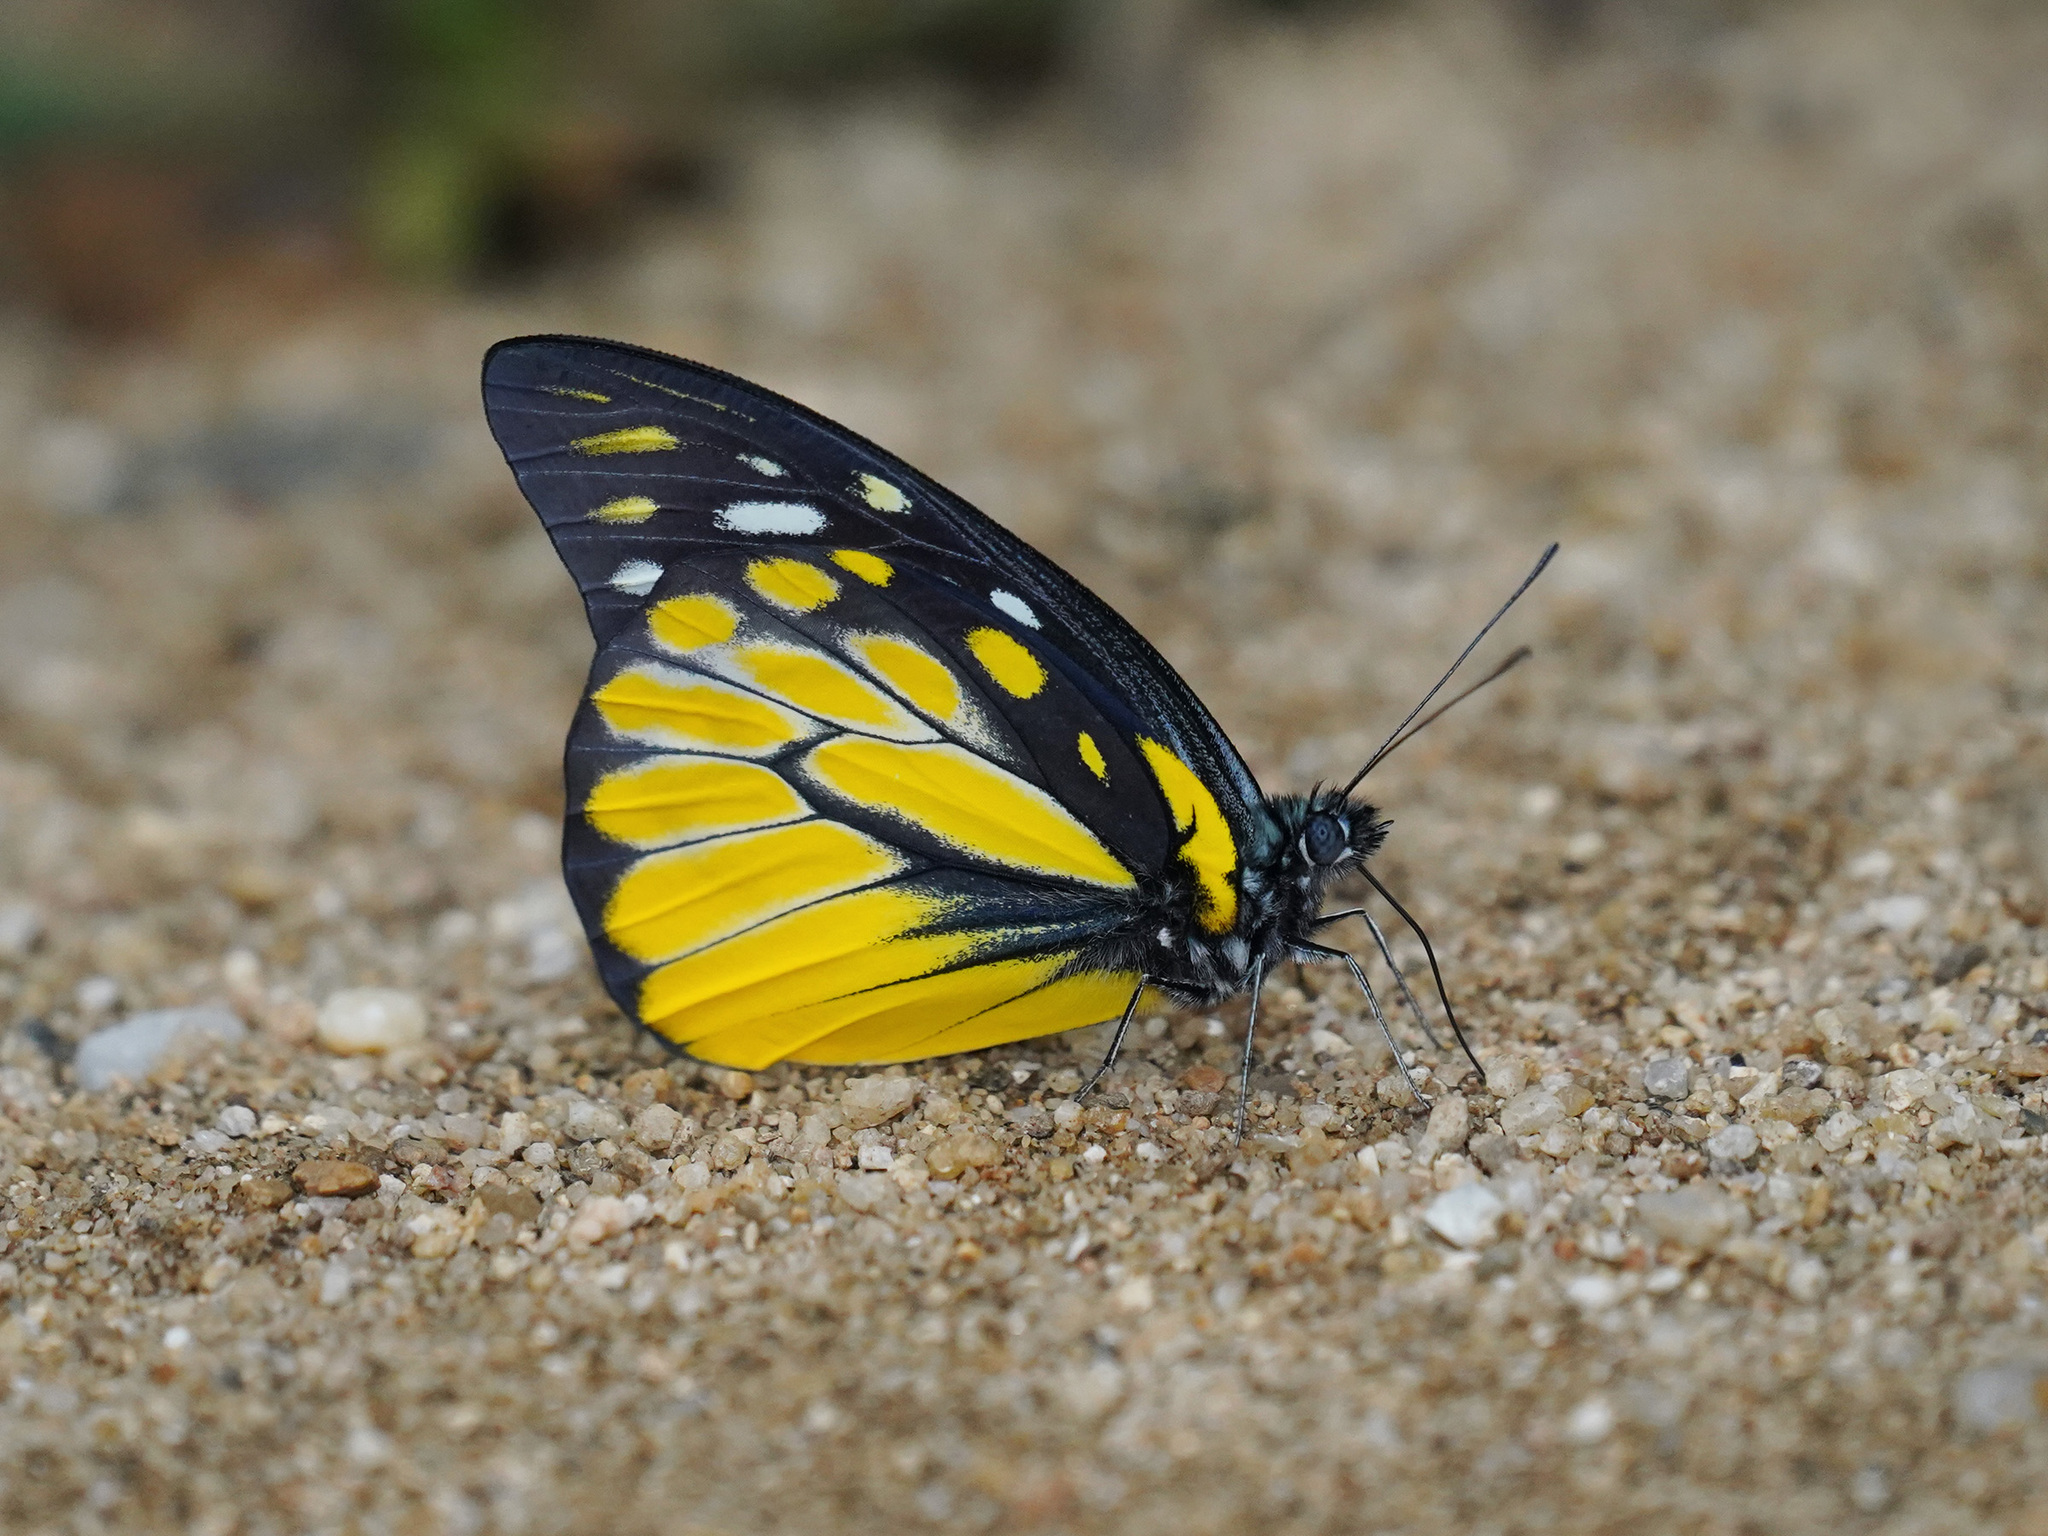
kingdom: Animalia
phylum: Arthropoda
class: Insecta
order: Lepidoptera
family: Pieridae
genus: Prioneris
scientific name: Prioneris thestylis
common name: Spotted sawtooth
